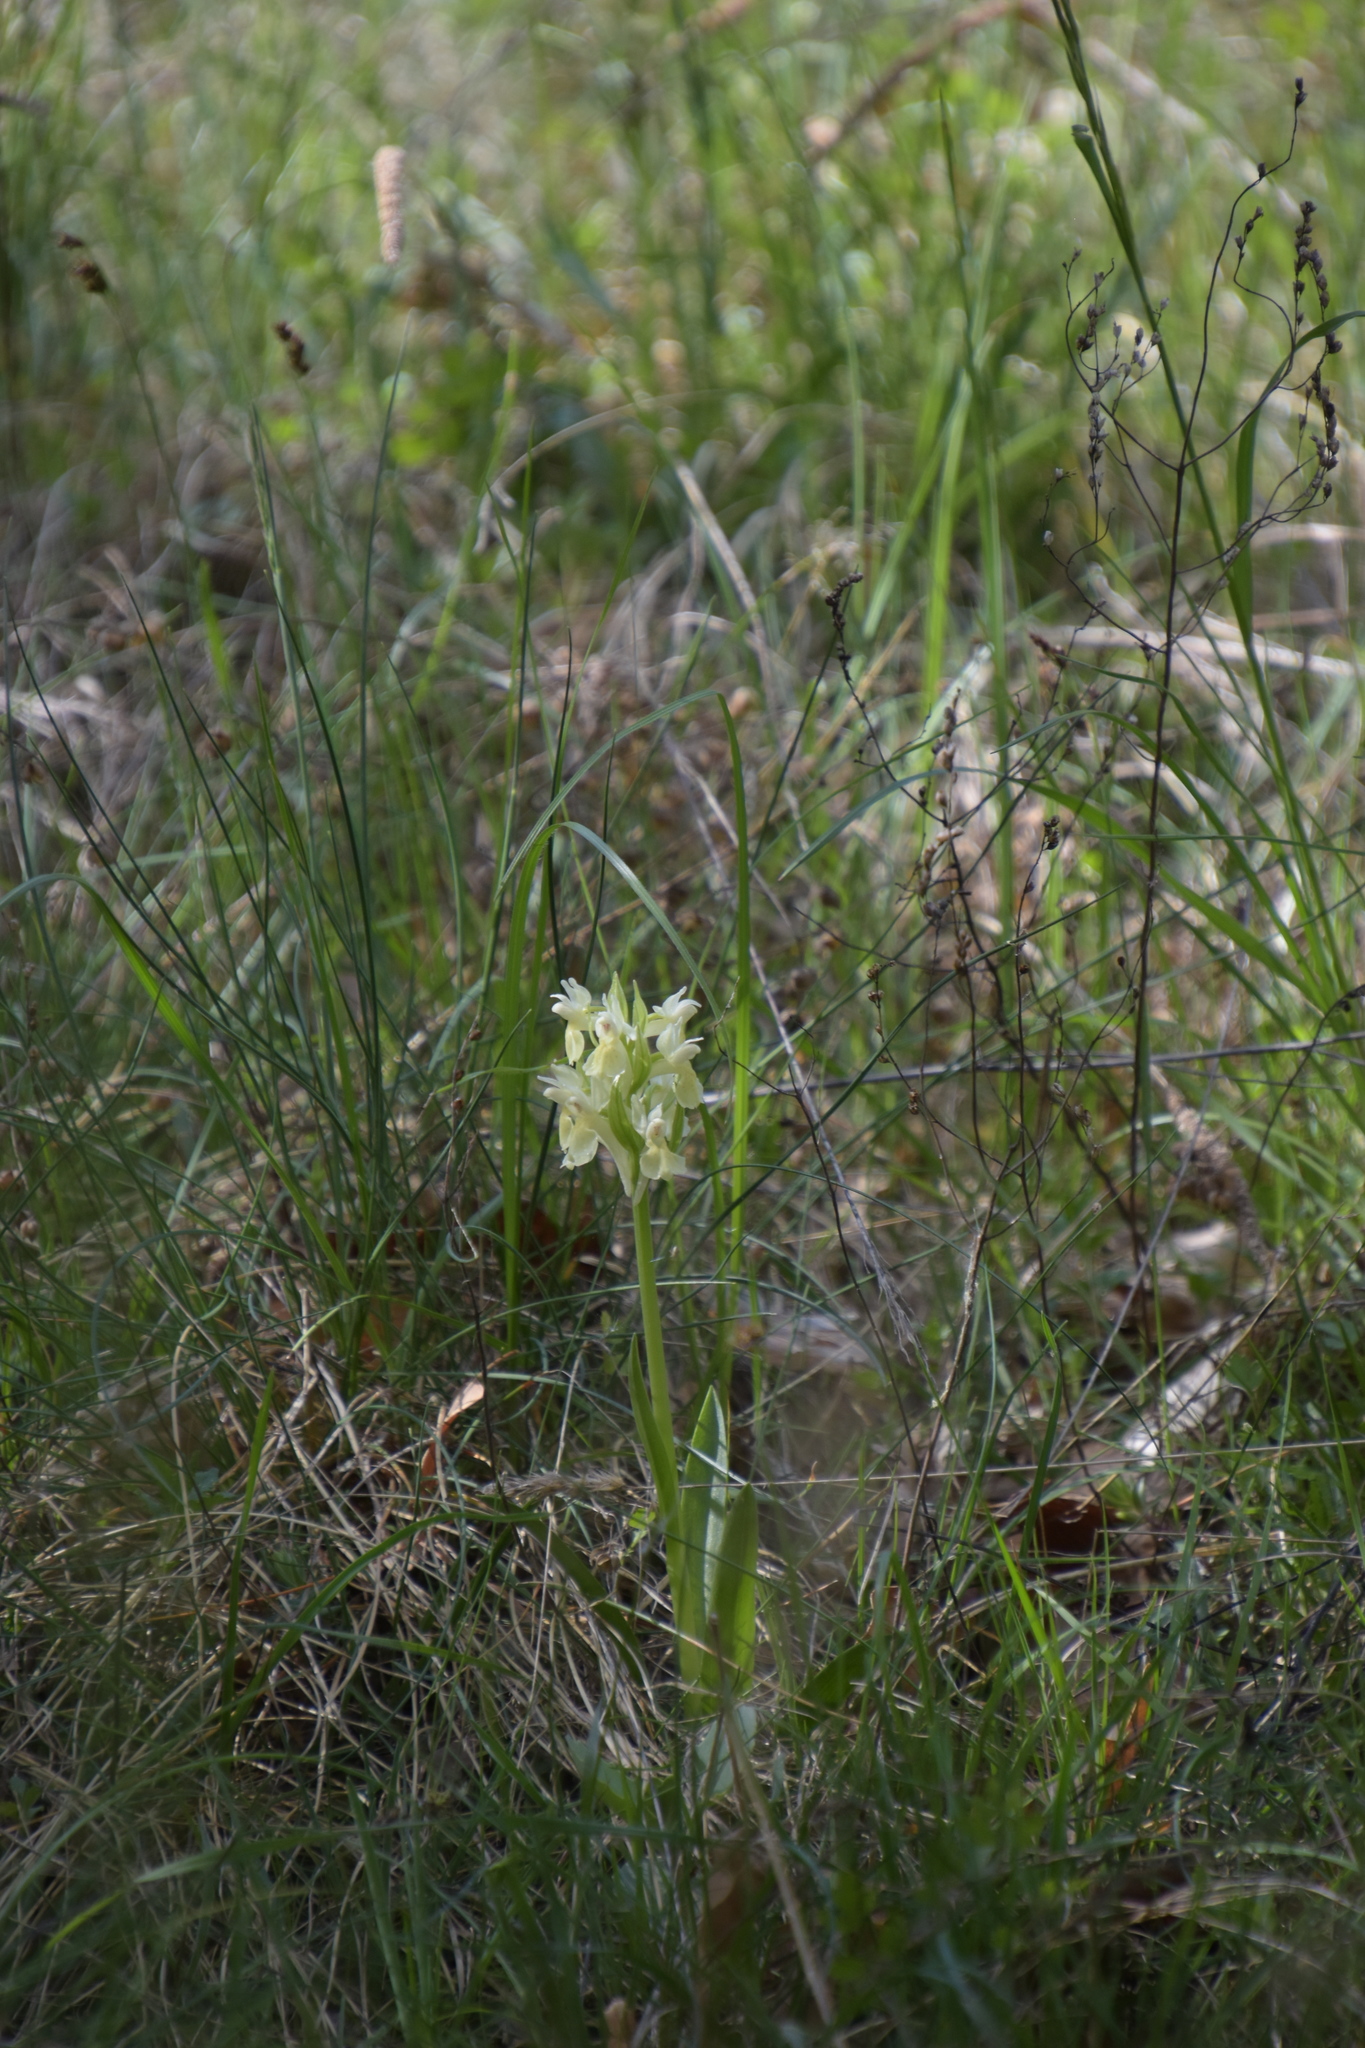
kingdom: Plantae
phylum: Tracheophyta
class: Liliopsida
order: Asparagales
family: Orchidaceae
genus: Dactylorhiza
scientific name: Dactylorhiza sambucina
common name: Elder-flowered orchid
